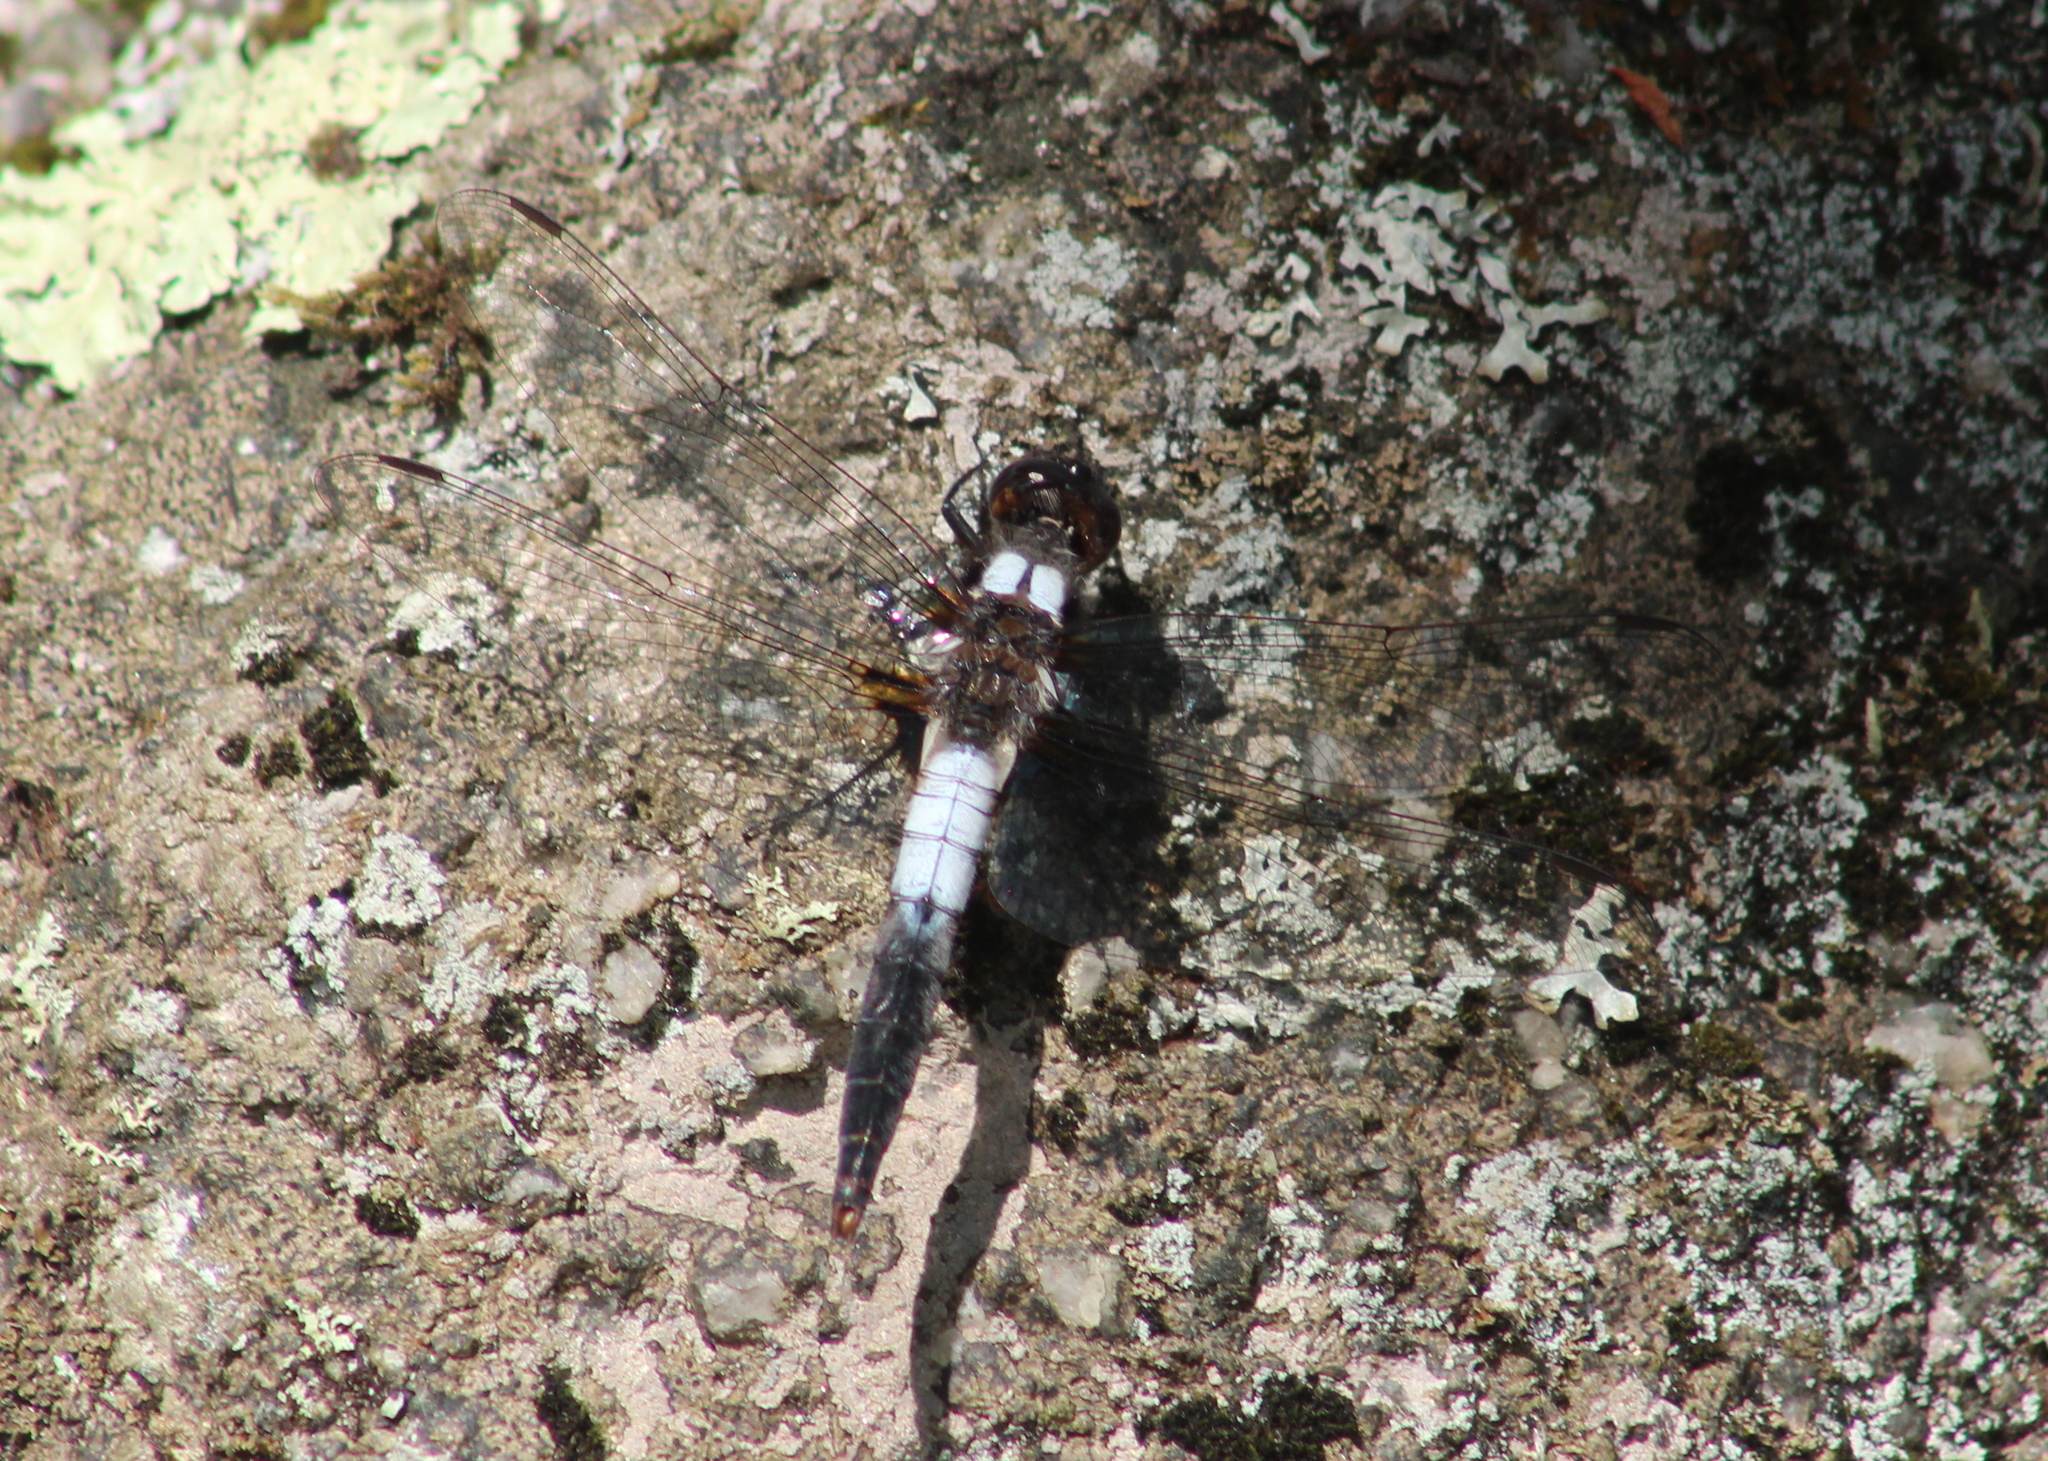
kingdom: Animalia
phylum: Arthropoda
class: Insecta
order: Odonata
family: Libellulidae
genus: Ladona
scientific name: Ladona julia
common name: Chalk-fronted corporal
